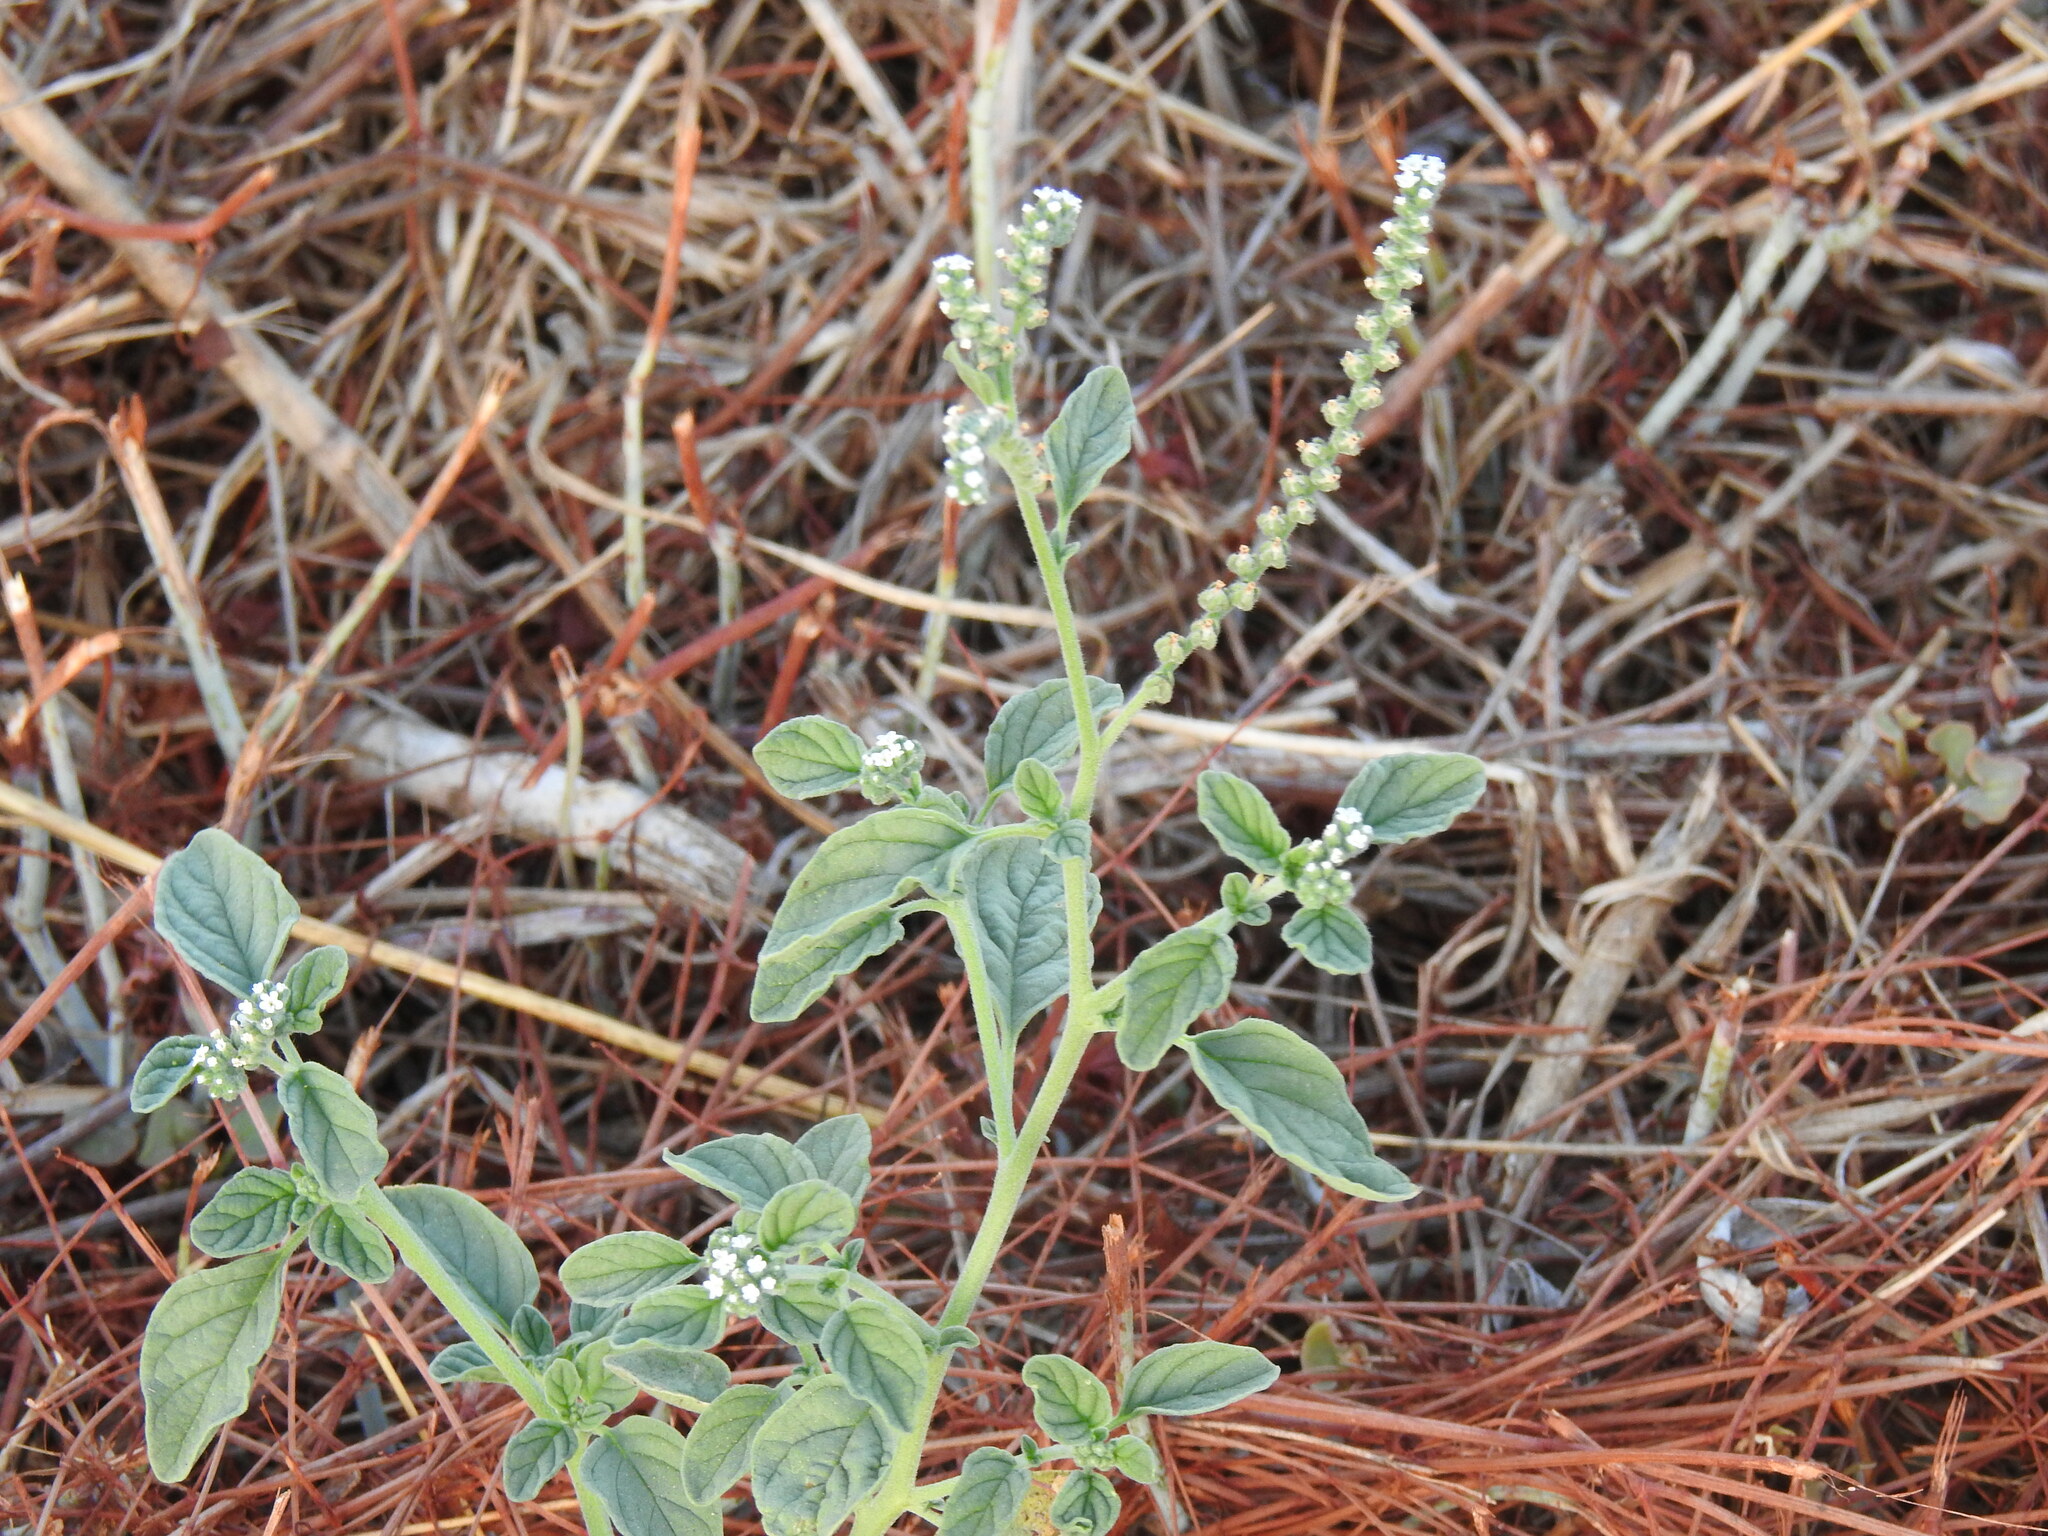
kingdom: Plantae
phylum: Tracheophyta
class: Magnoliopsida
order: Boraginales
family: Heliotropiaceae
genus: Heliotropium
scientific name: Heliotropium europaeum
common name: European heliotrope
